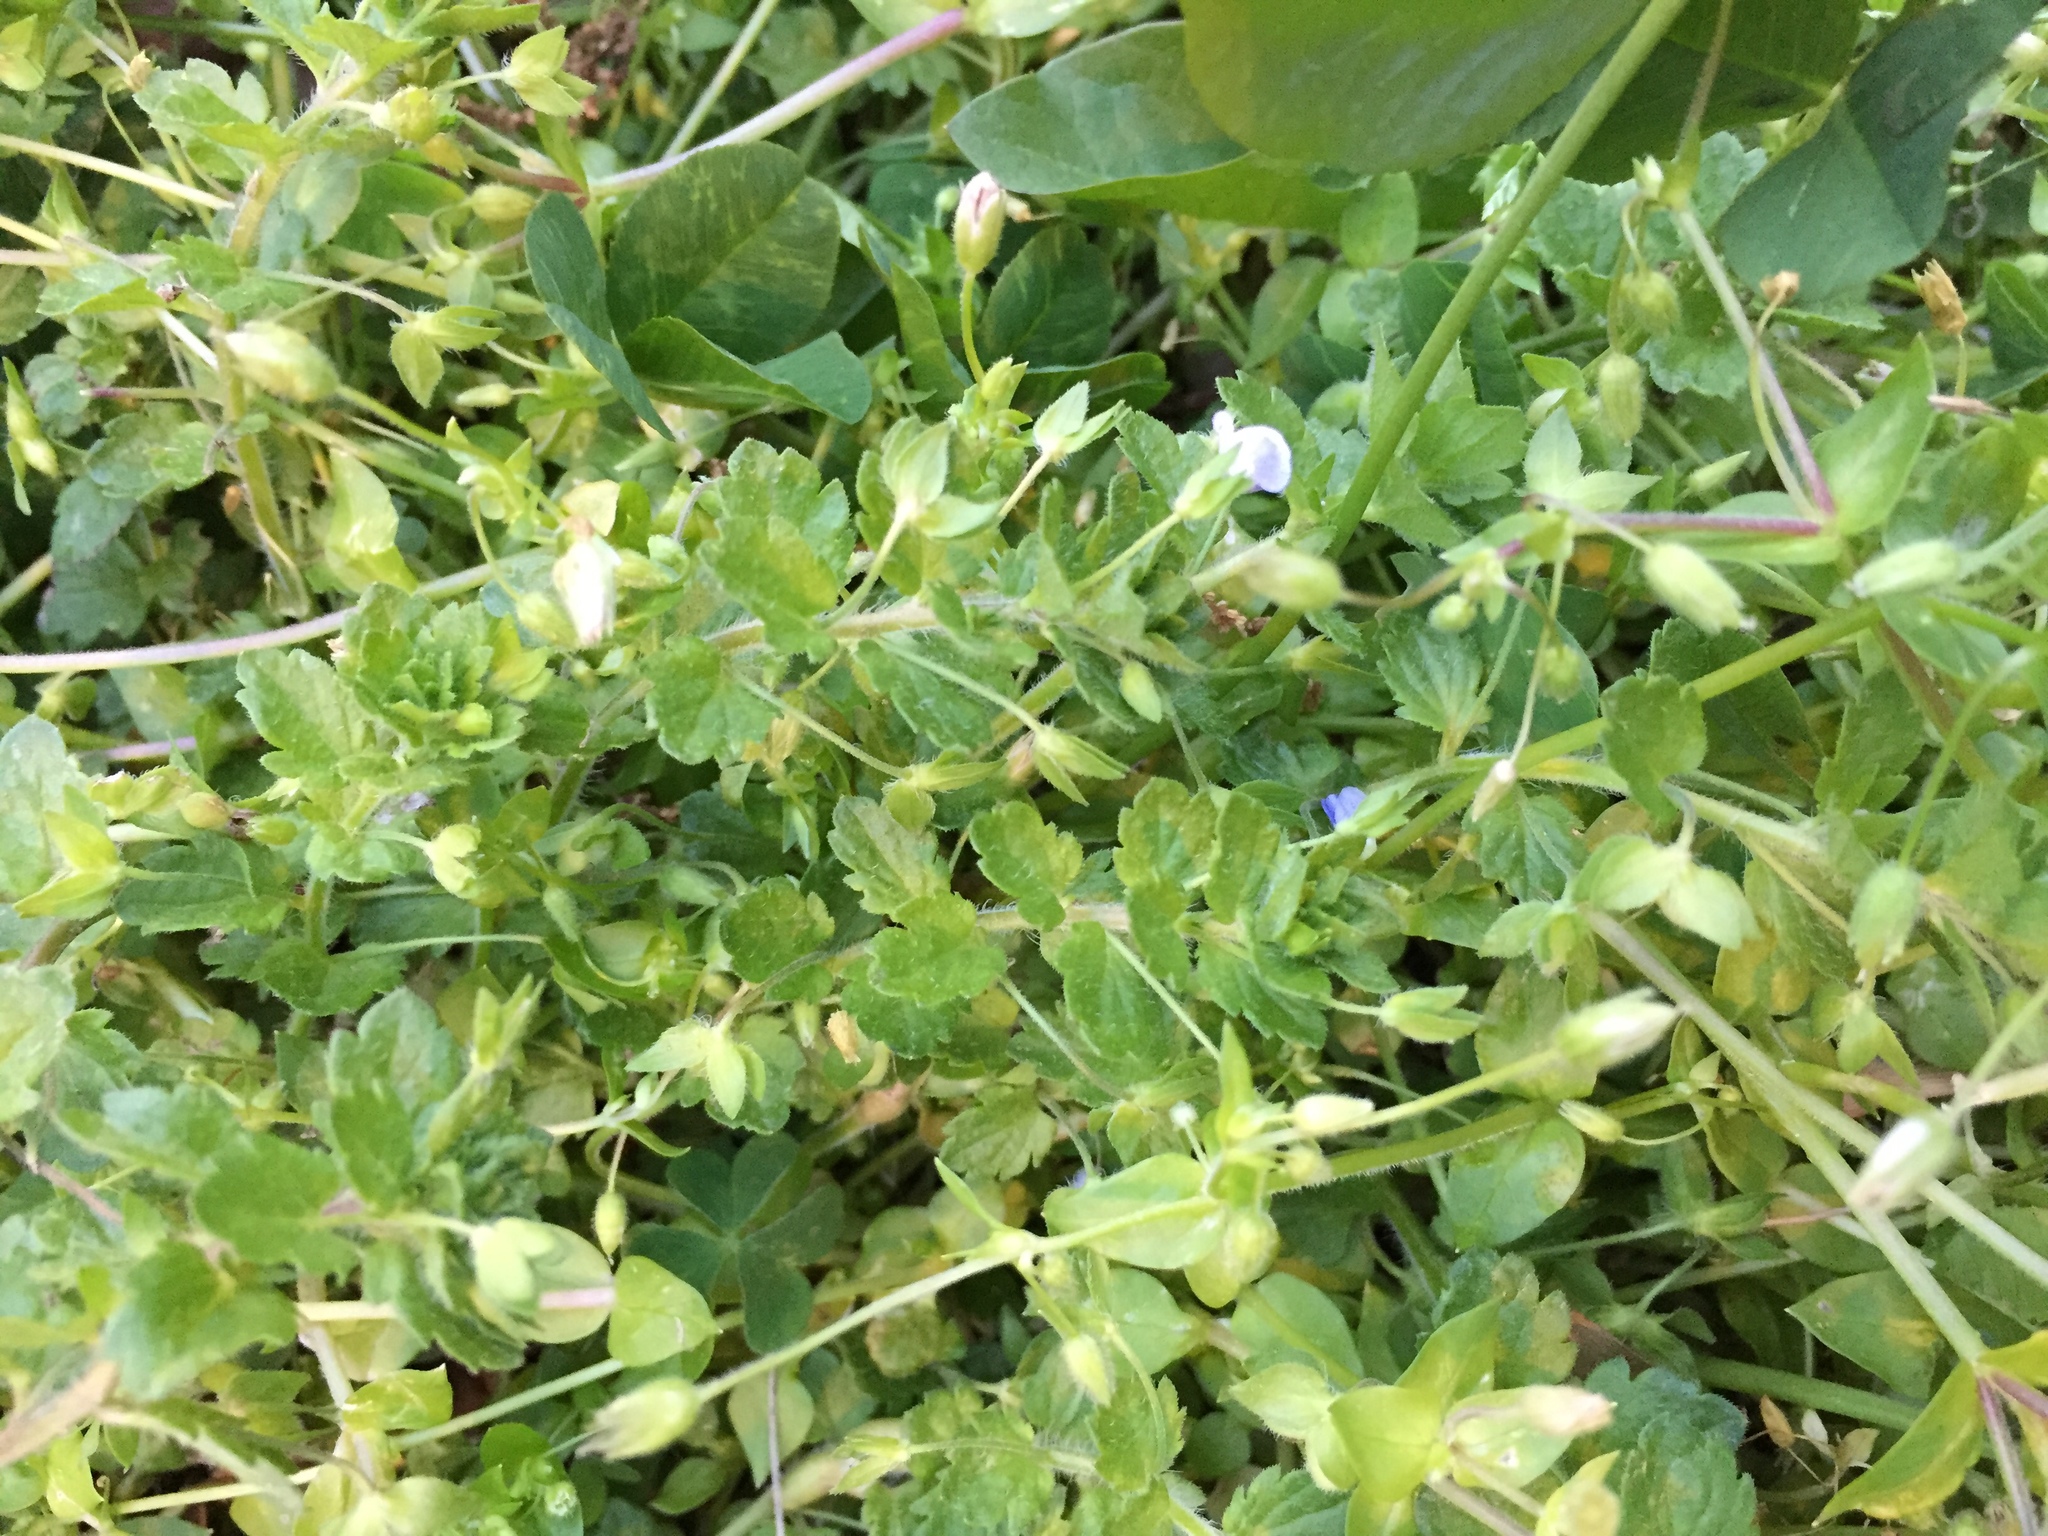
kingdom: Plantae
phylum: Tracheophyta
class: Magnoliopsida
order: Lamiales
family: Plantaginaceae
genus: Veronica
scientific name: Veronica persica
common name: Common field-speedwell
